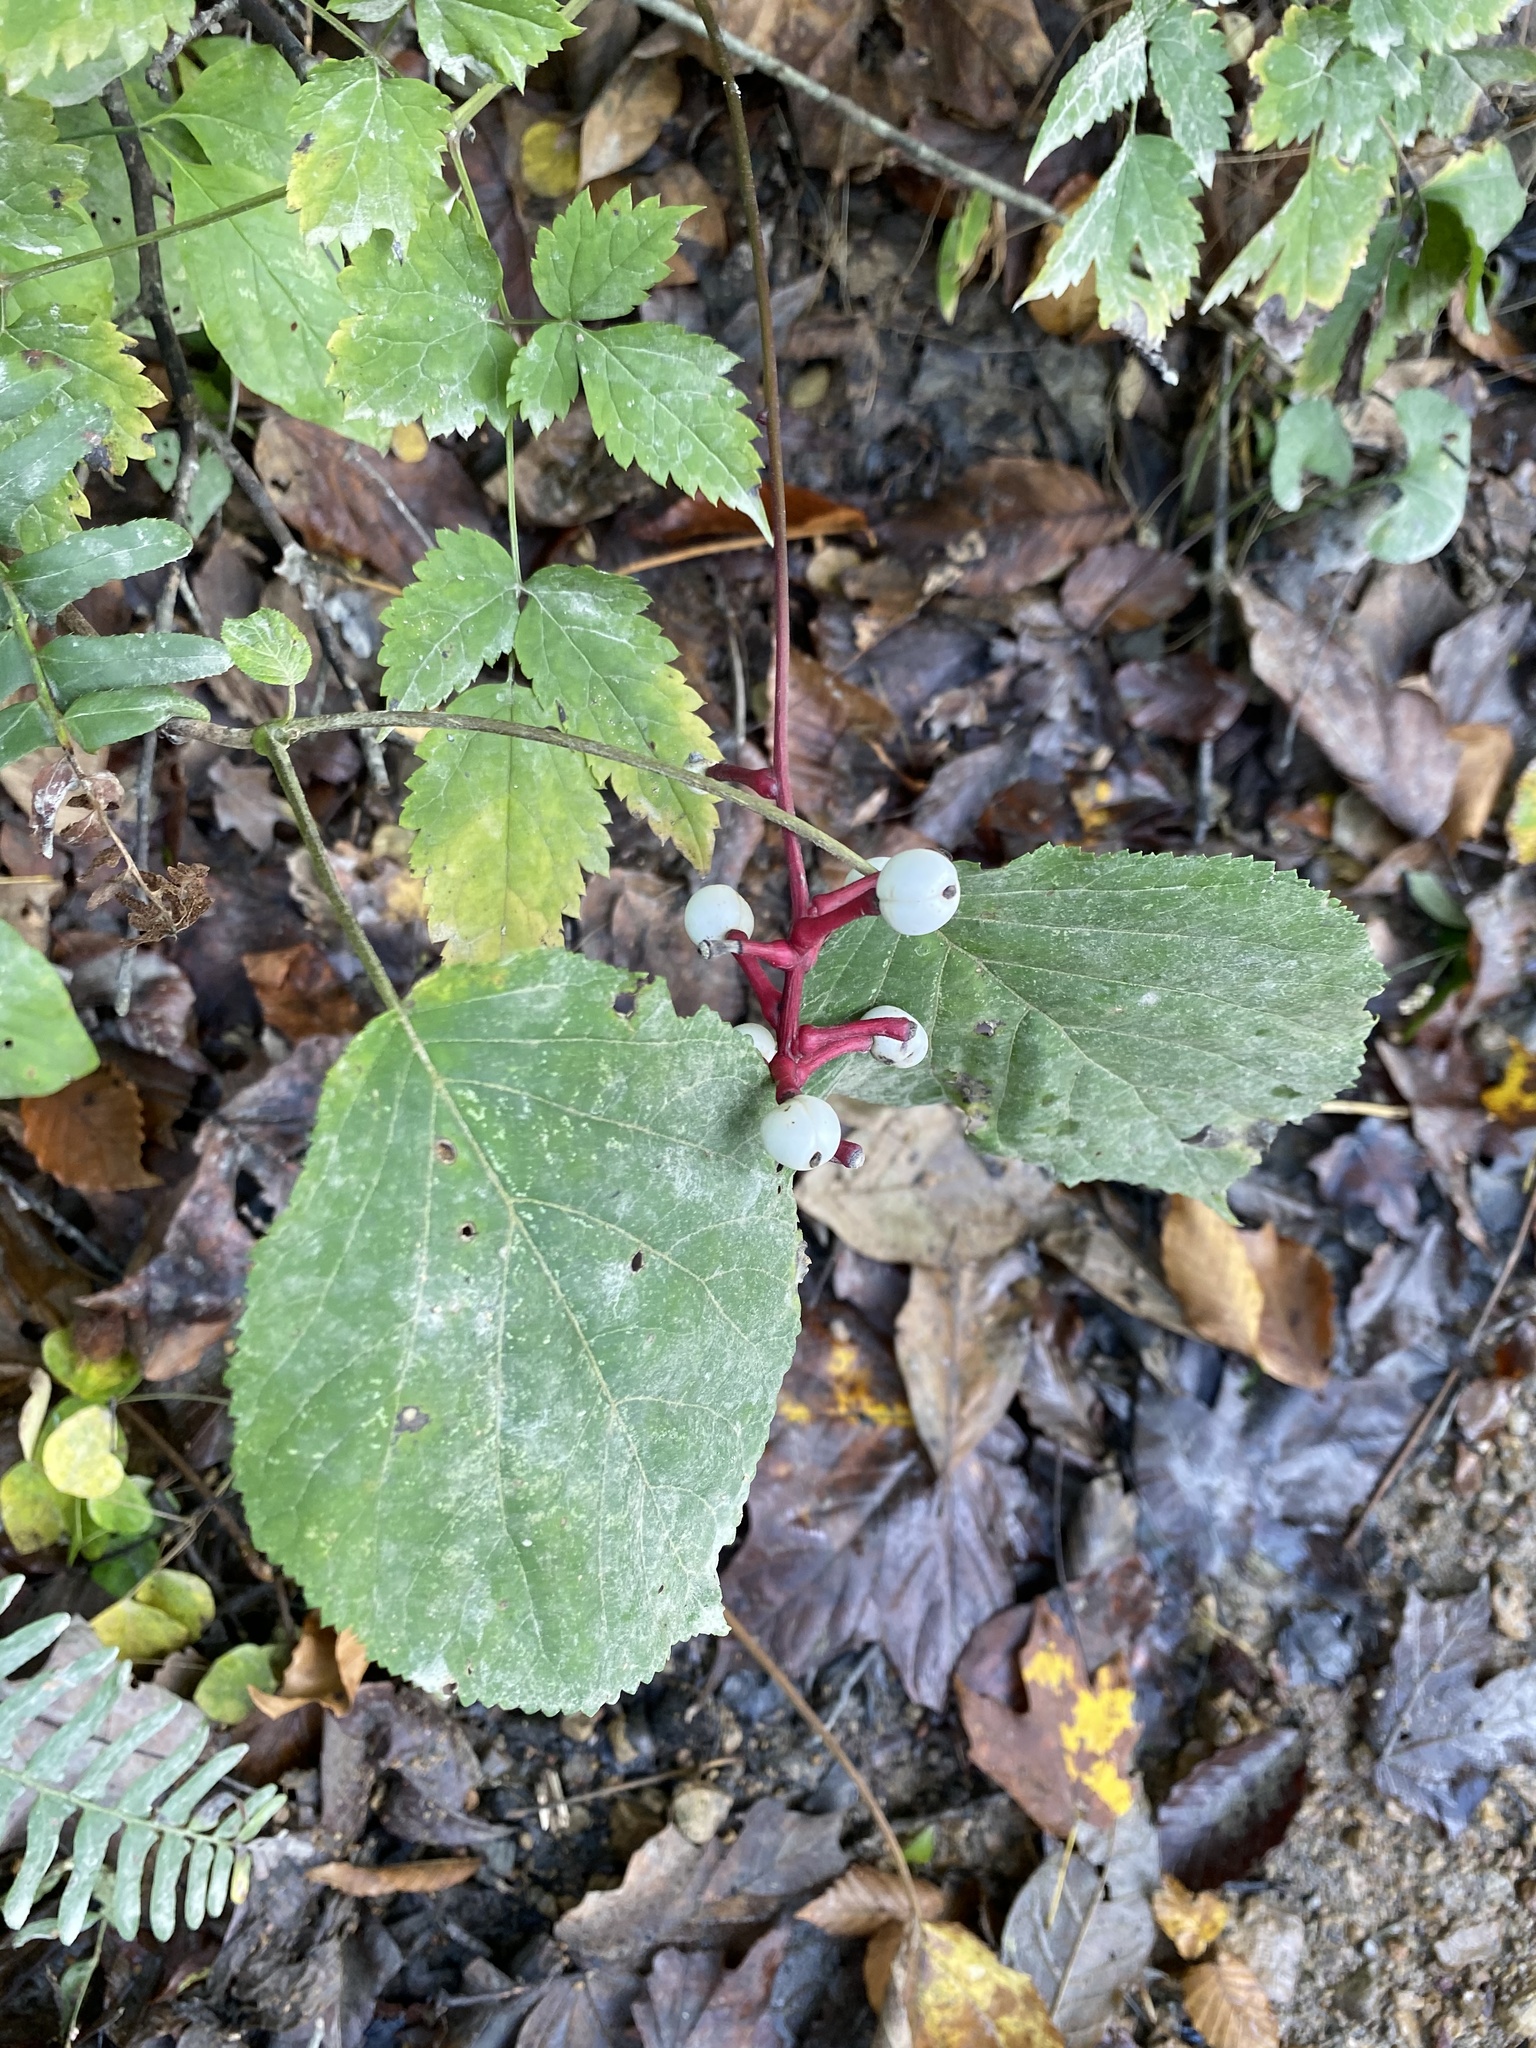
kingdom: Plantae
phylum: Tracheophyta
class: Magnoliopsida
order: Ranunculales
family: Ranunculaceae
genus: Actaea
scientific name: Actaea pachypoda
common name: Doll's-eyes
